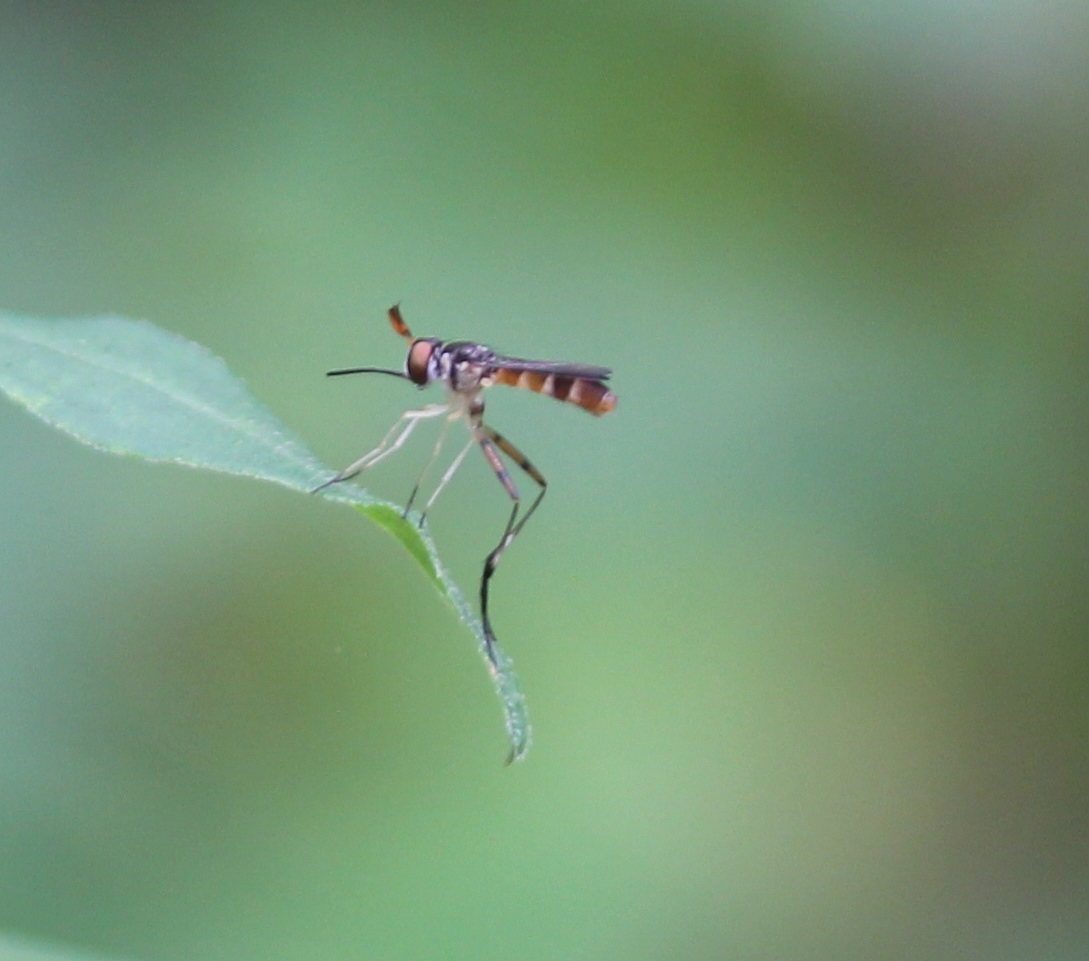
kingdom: Animalia
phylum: Arthropoda
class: Insecta
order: Diptera
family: Conopidae
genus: Stylogaster
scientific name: Stylogaster neglecta
